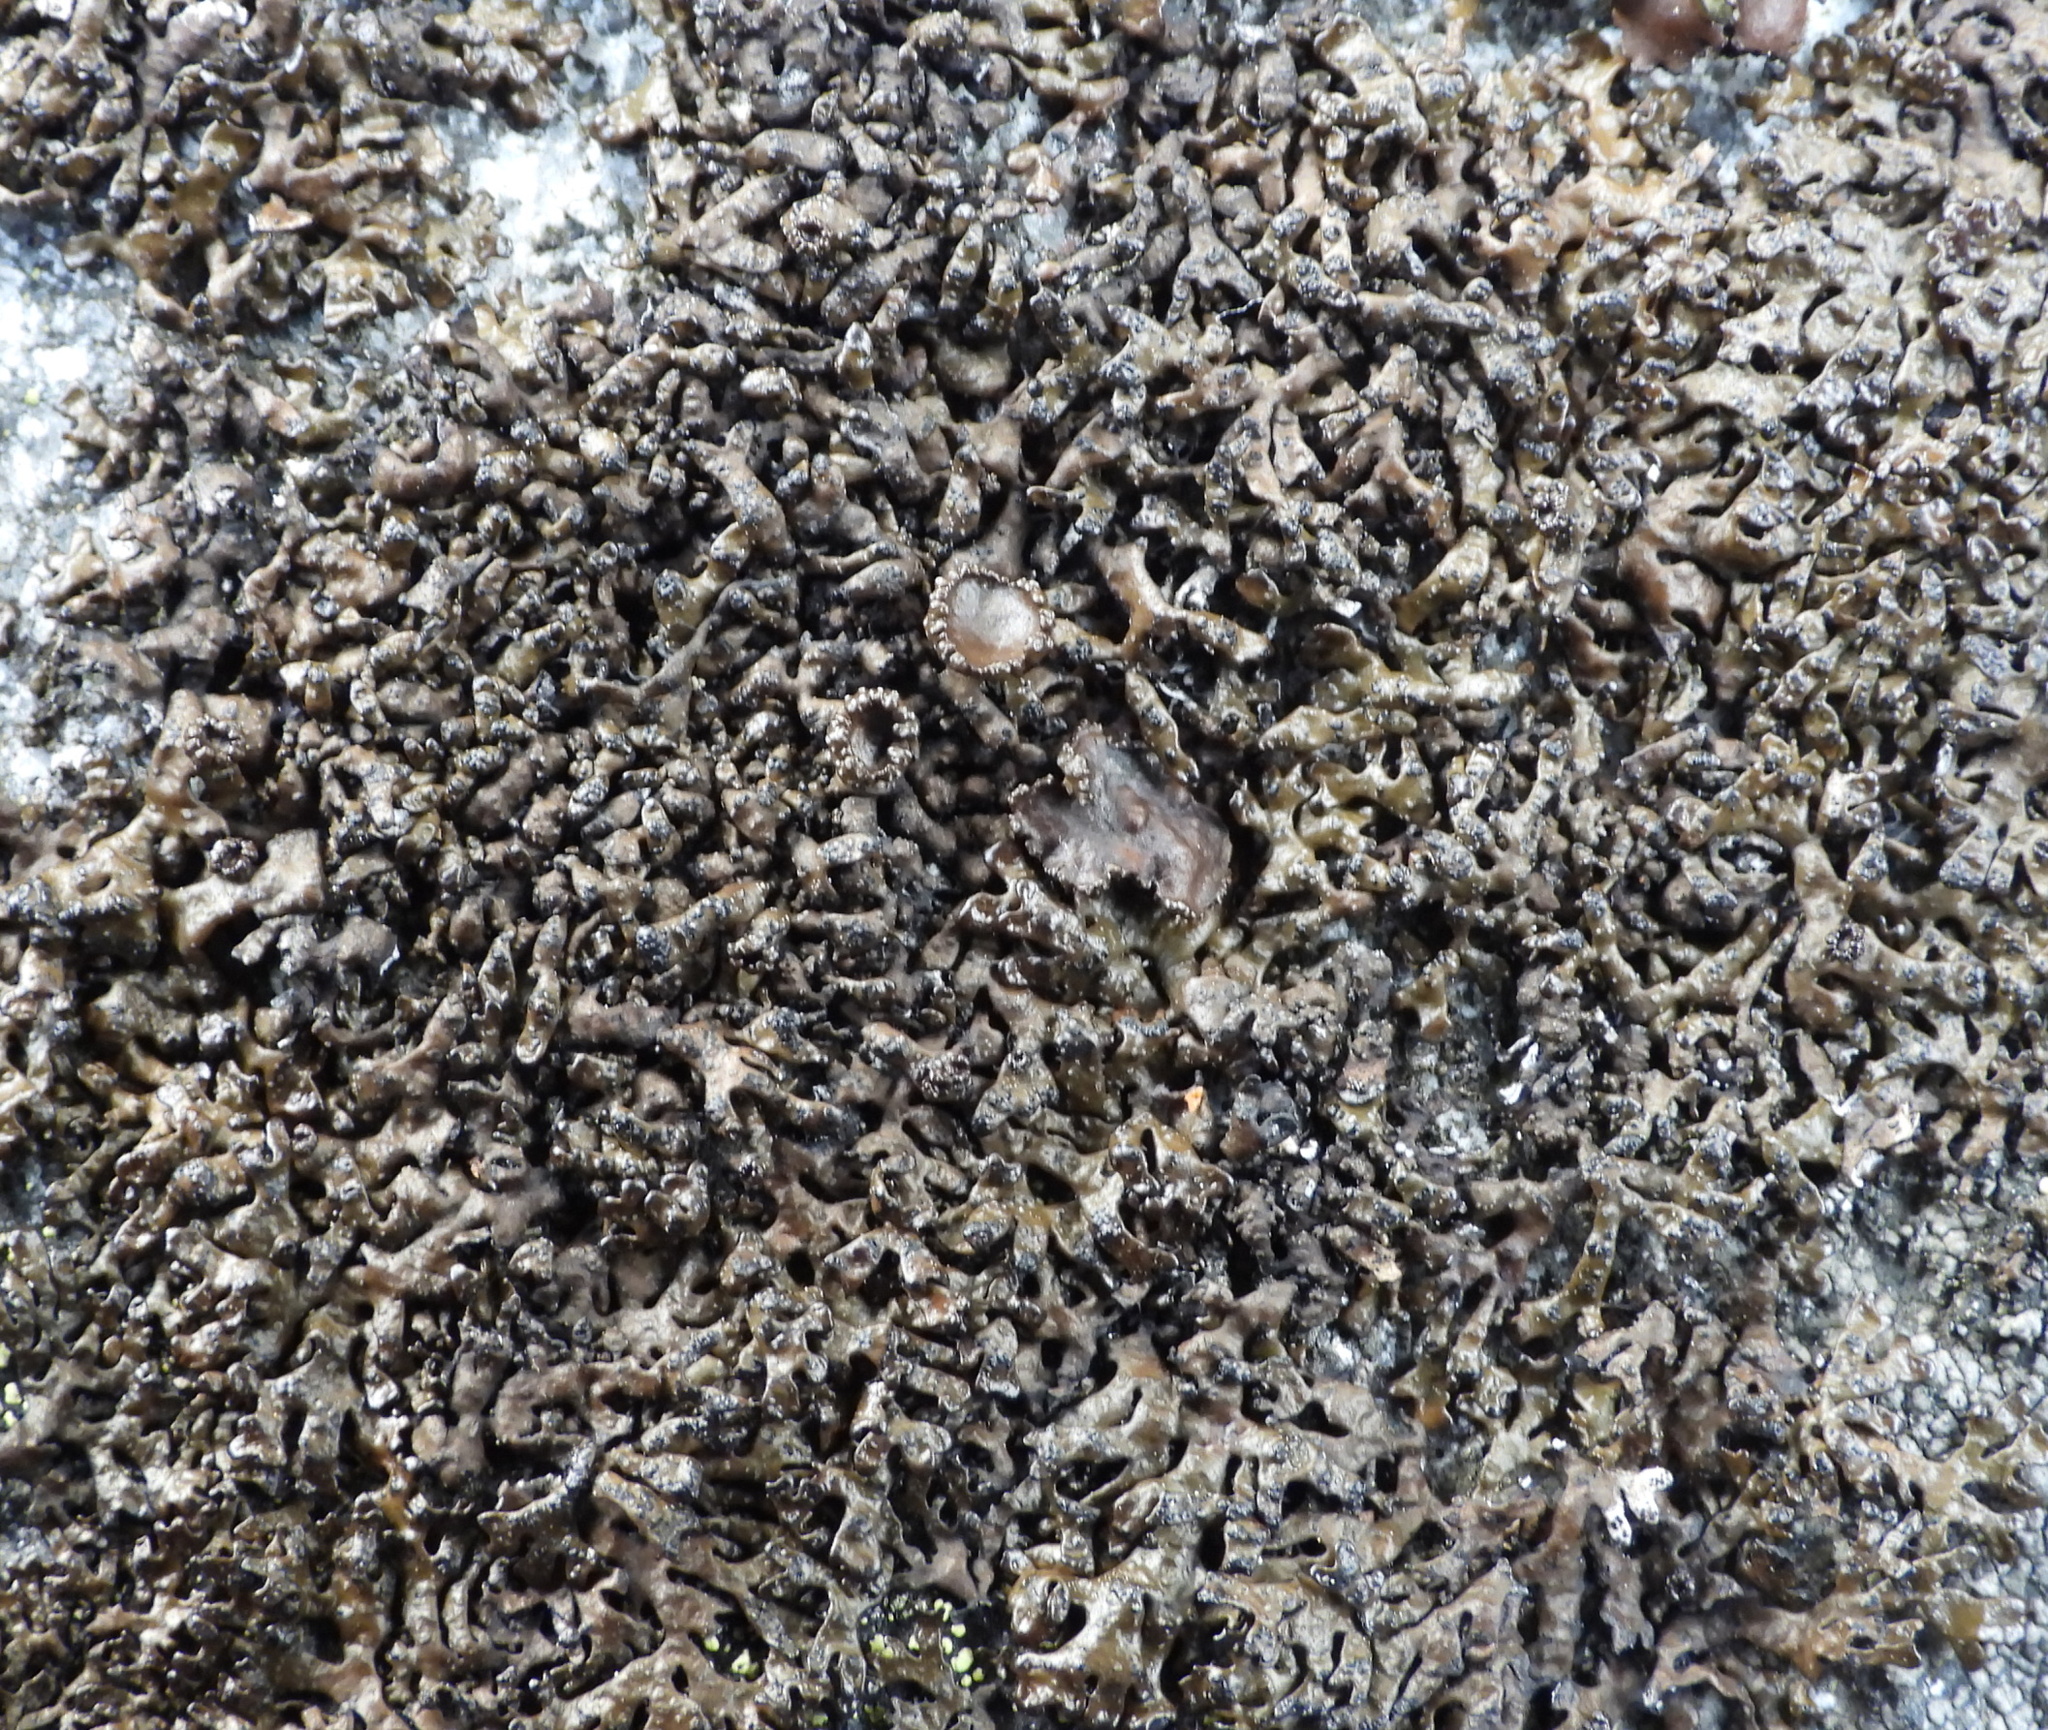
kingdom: Fungi
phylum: Ascomycota
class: Lecanoromycetes
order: Lecanorales
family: Parmeliaceae
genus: Melanelia
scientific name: Melanelia stygia
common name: Alpine camouflage lichen
